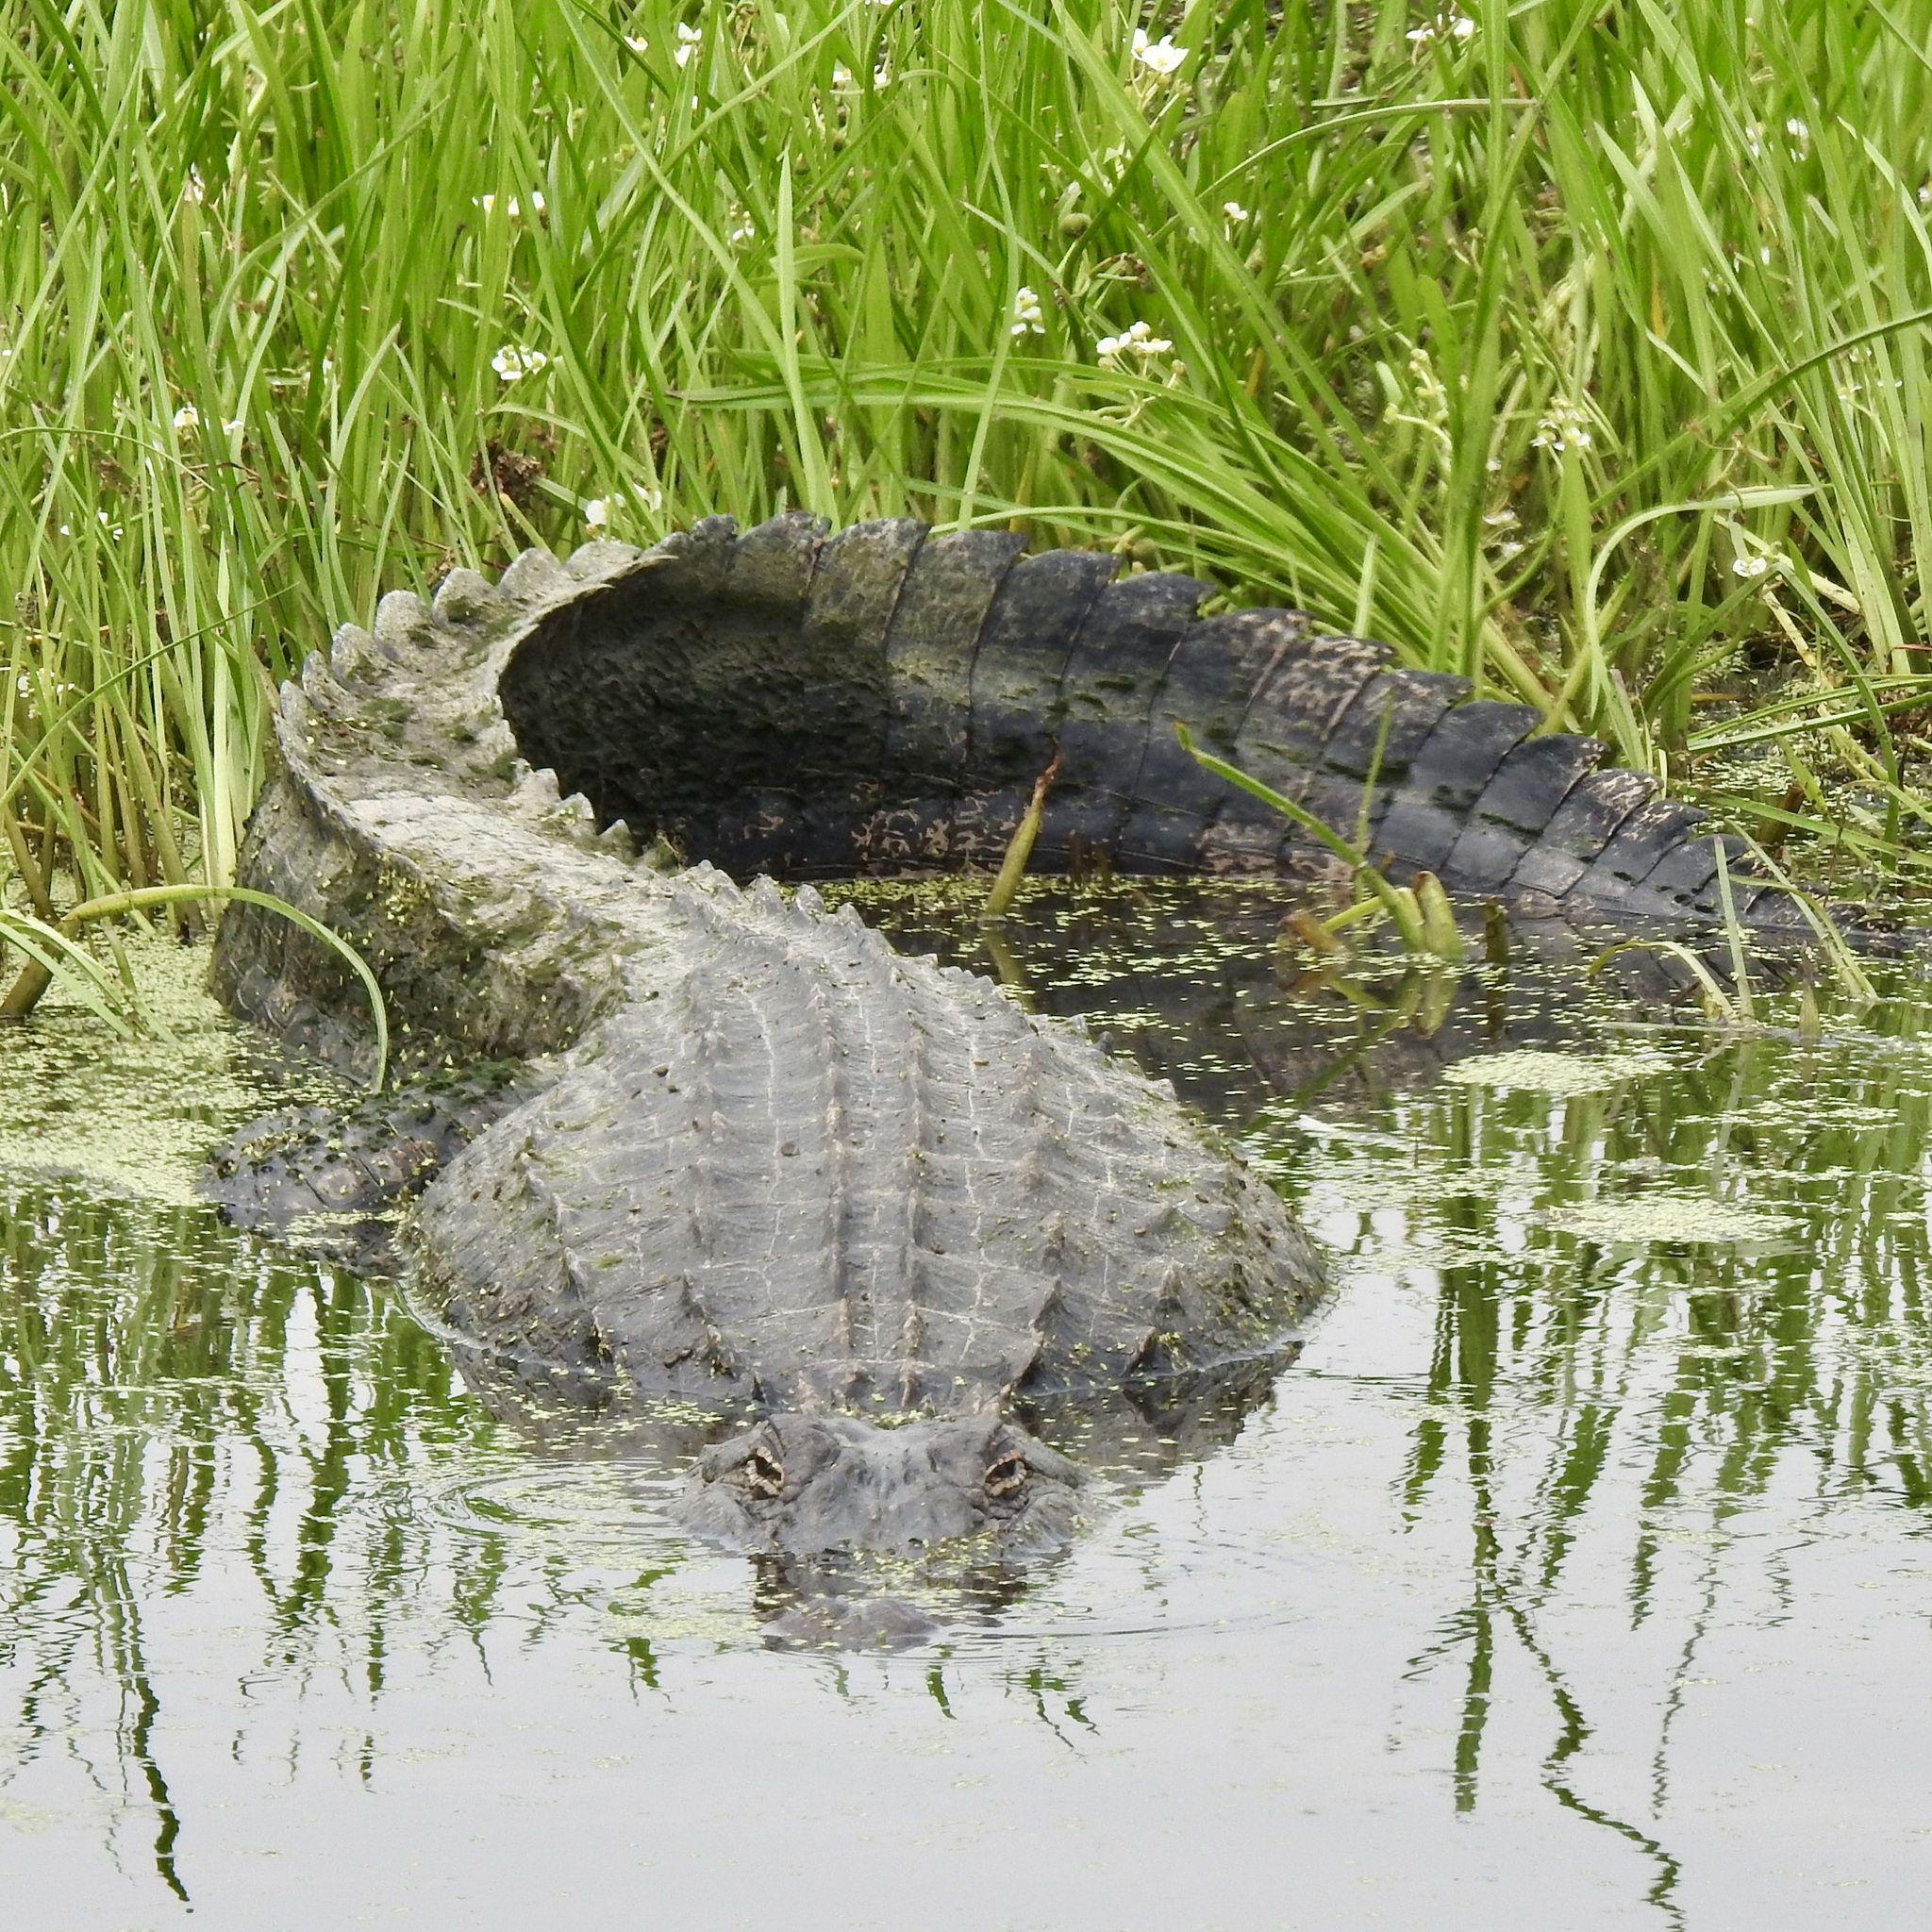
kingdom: Animalia
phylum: Chordata
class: Crocodylia
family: Alligatoridae
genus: Alligator
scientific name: Alligator mississippiensis
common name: American alligator
